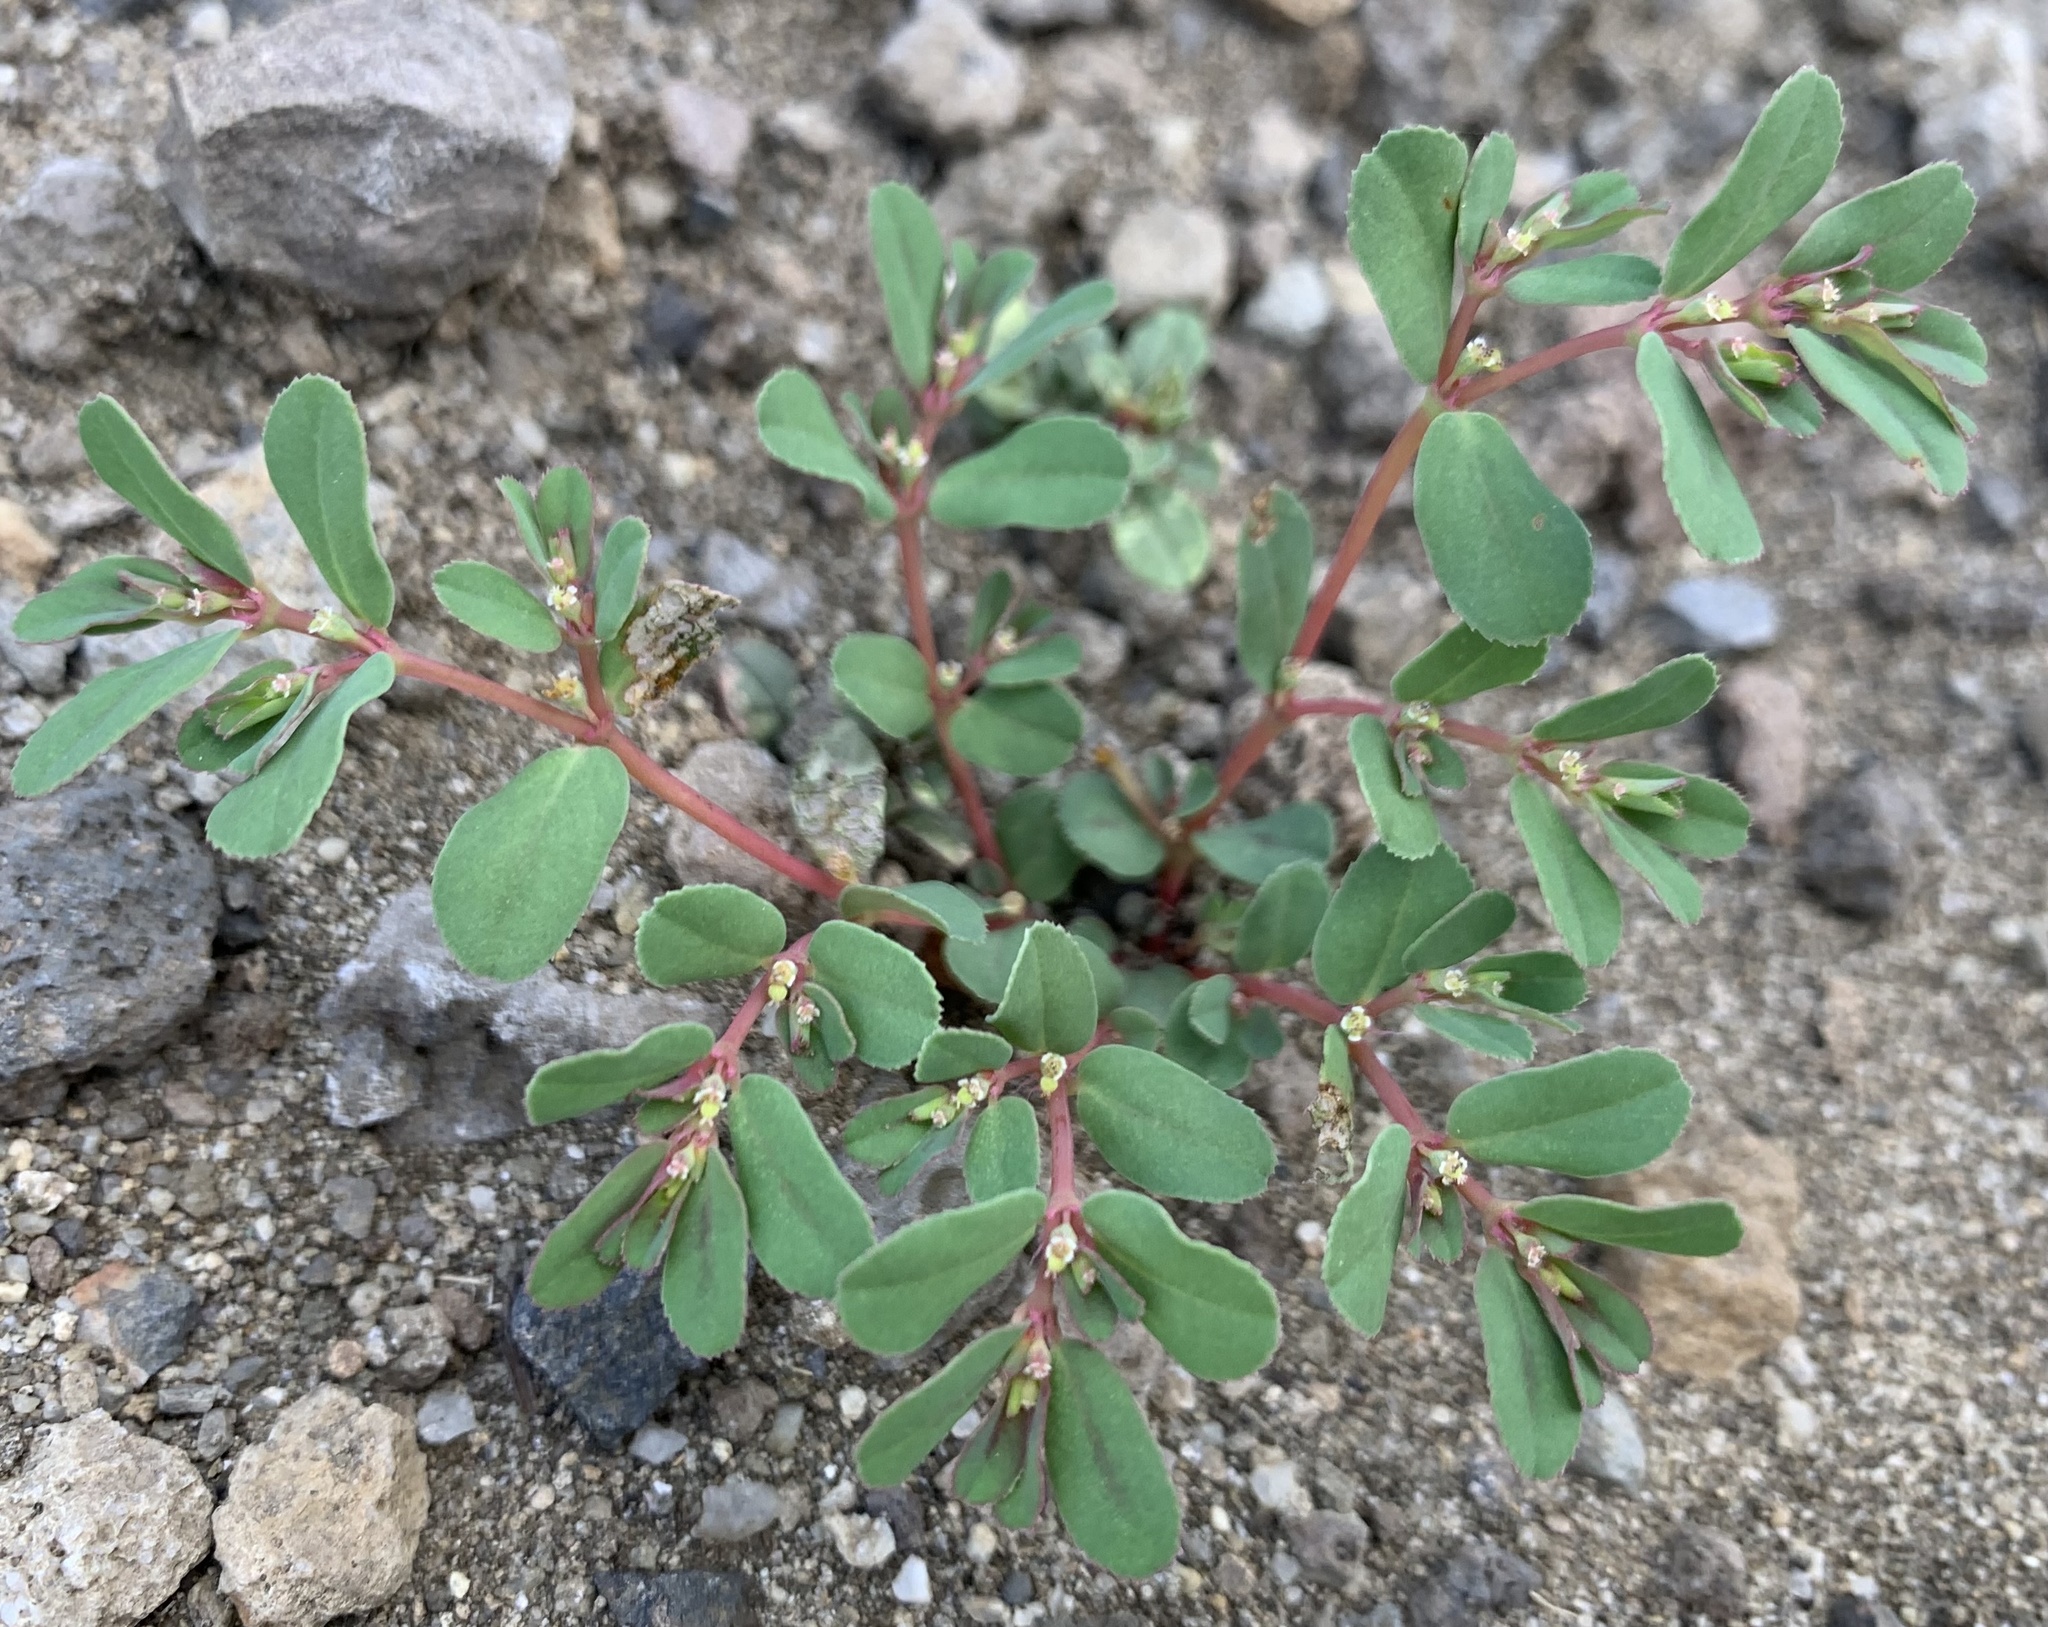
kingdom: Plantae
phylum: Tracheophyta
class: Magnoliopsida
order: Malpighiales
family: Euphorbiaceae
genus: Euphorbia
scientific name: Euphorbia serpillifolia
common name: Thyme-leaf spurge
